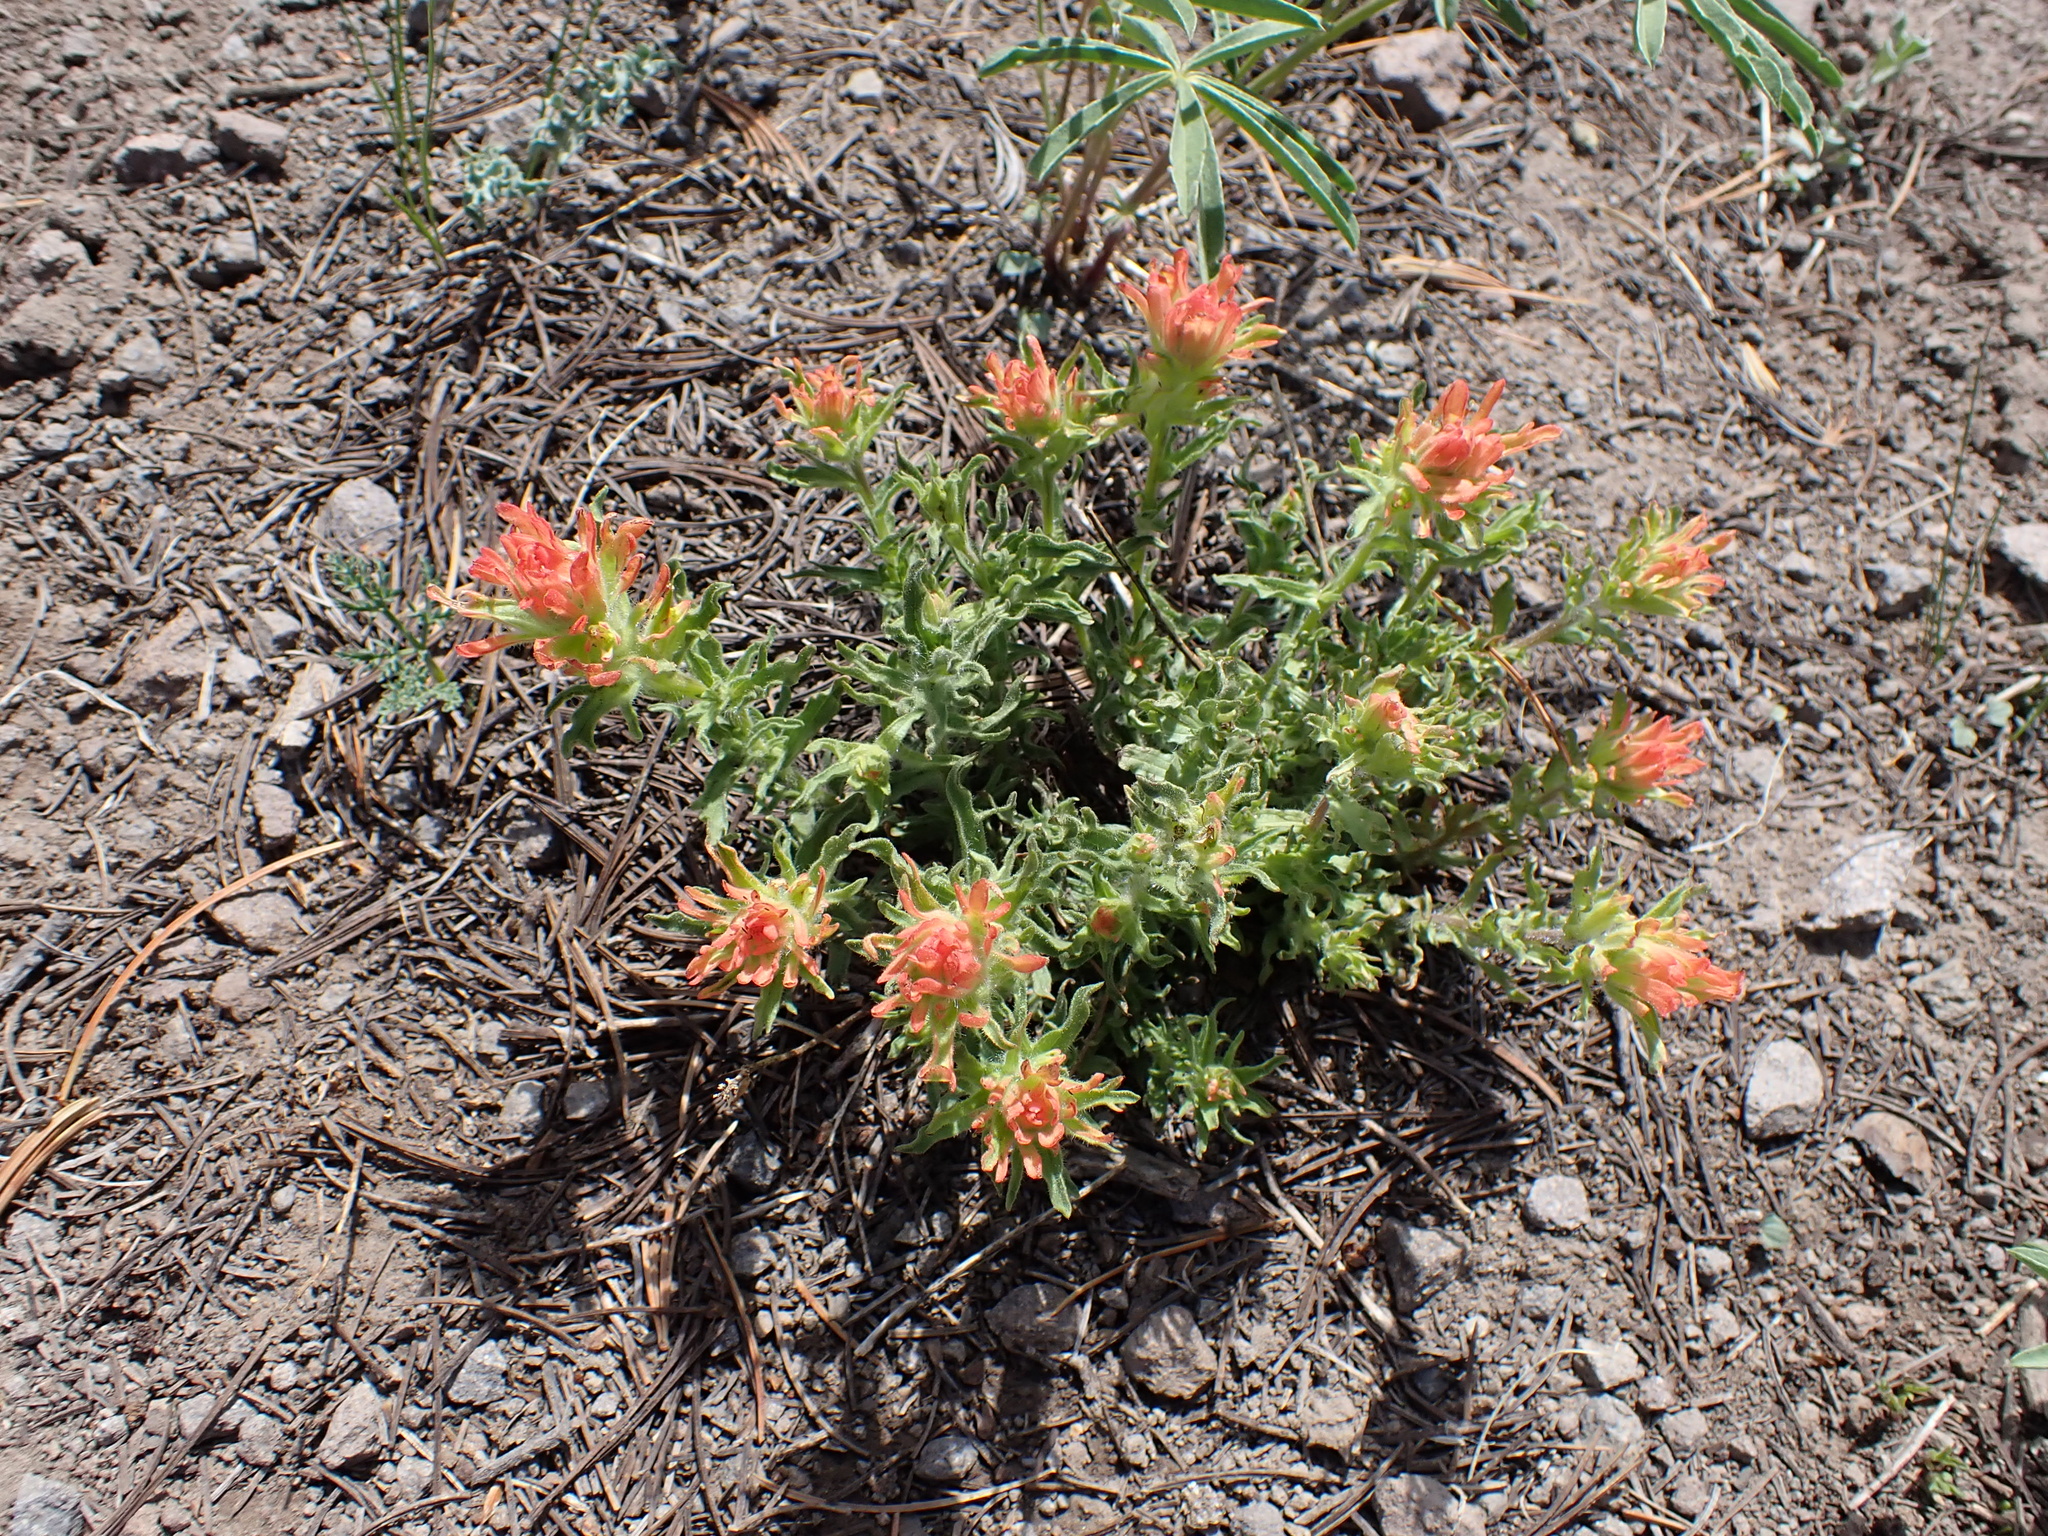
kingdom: Plantae
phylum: Tracheophyta
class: Magnoliopsida
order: Lamiales
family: Orobanchaceae
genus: Castilleja
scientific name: Castilleja applegatei
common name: Wavy-leaf paintbrush
